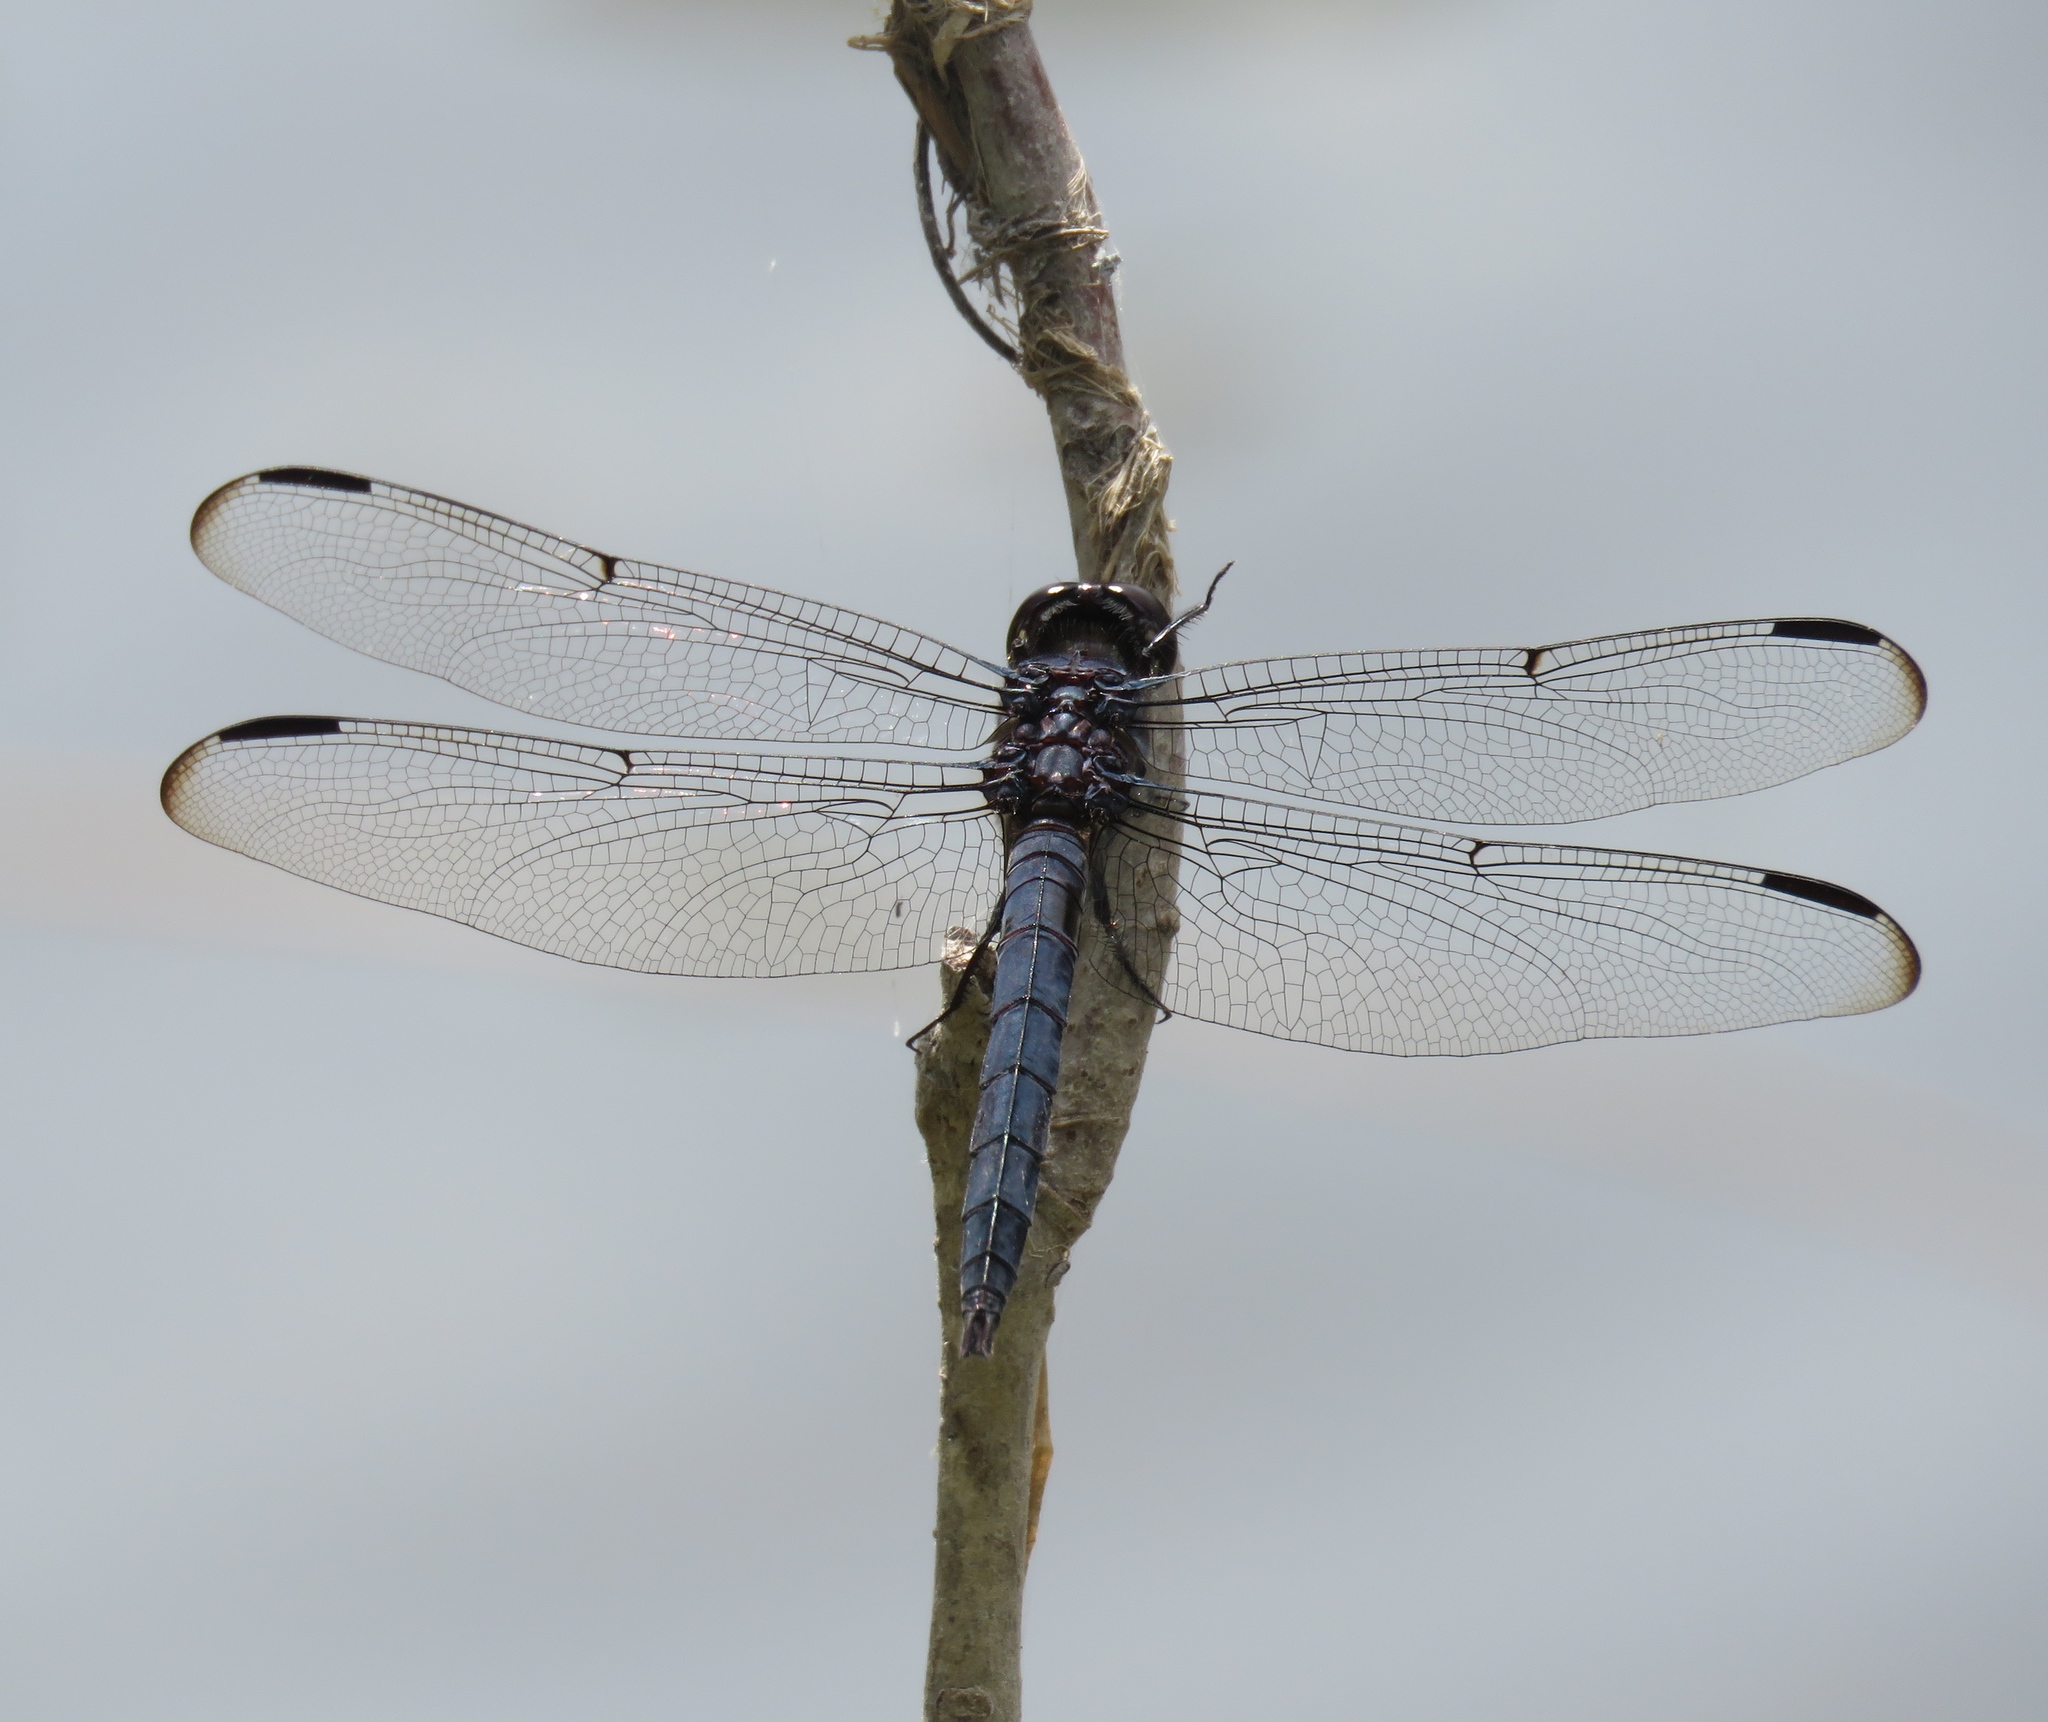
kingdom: Animalia
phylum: Arthropoda
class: Insecta
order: Odonata
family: Libellulidae
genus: Libellula
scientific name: Libellula incesta
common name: Slaty skimmer
